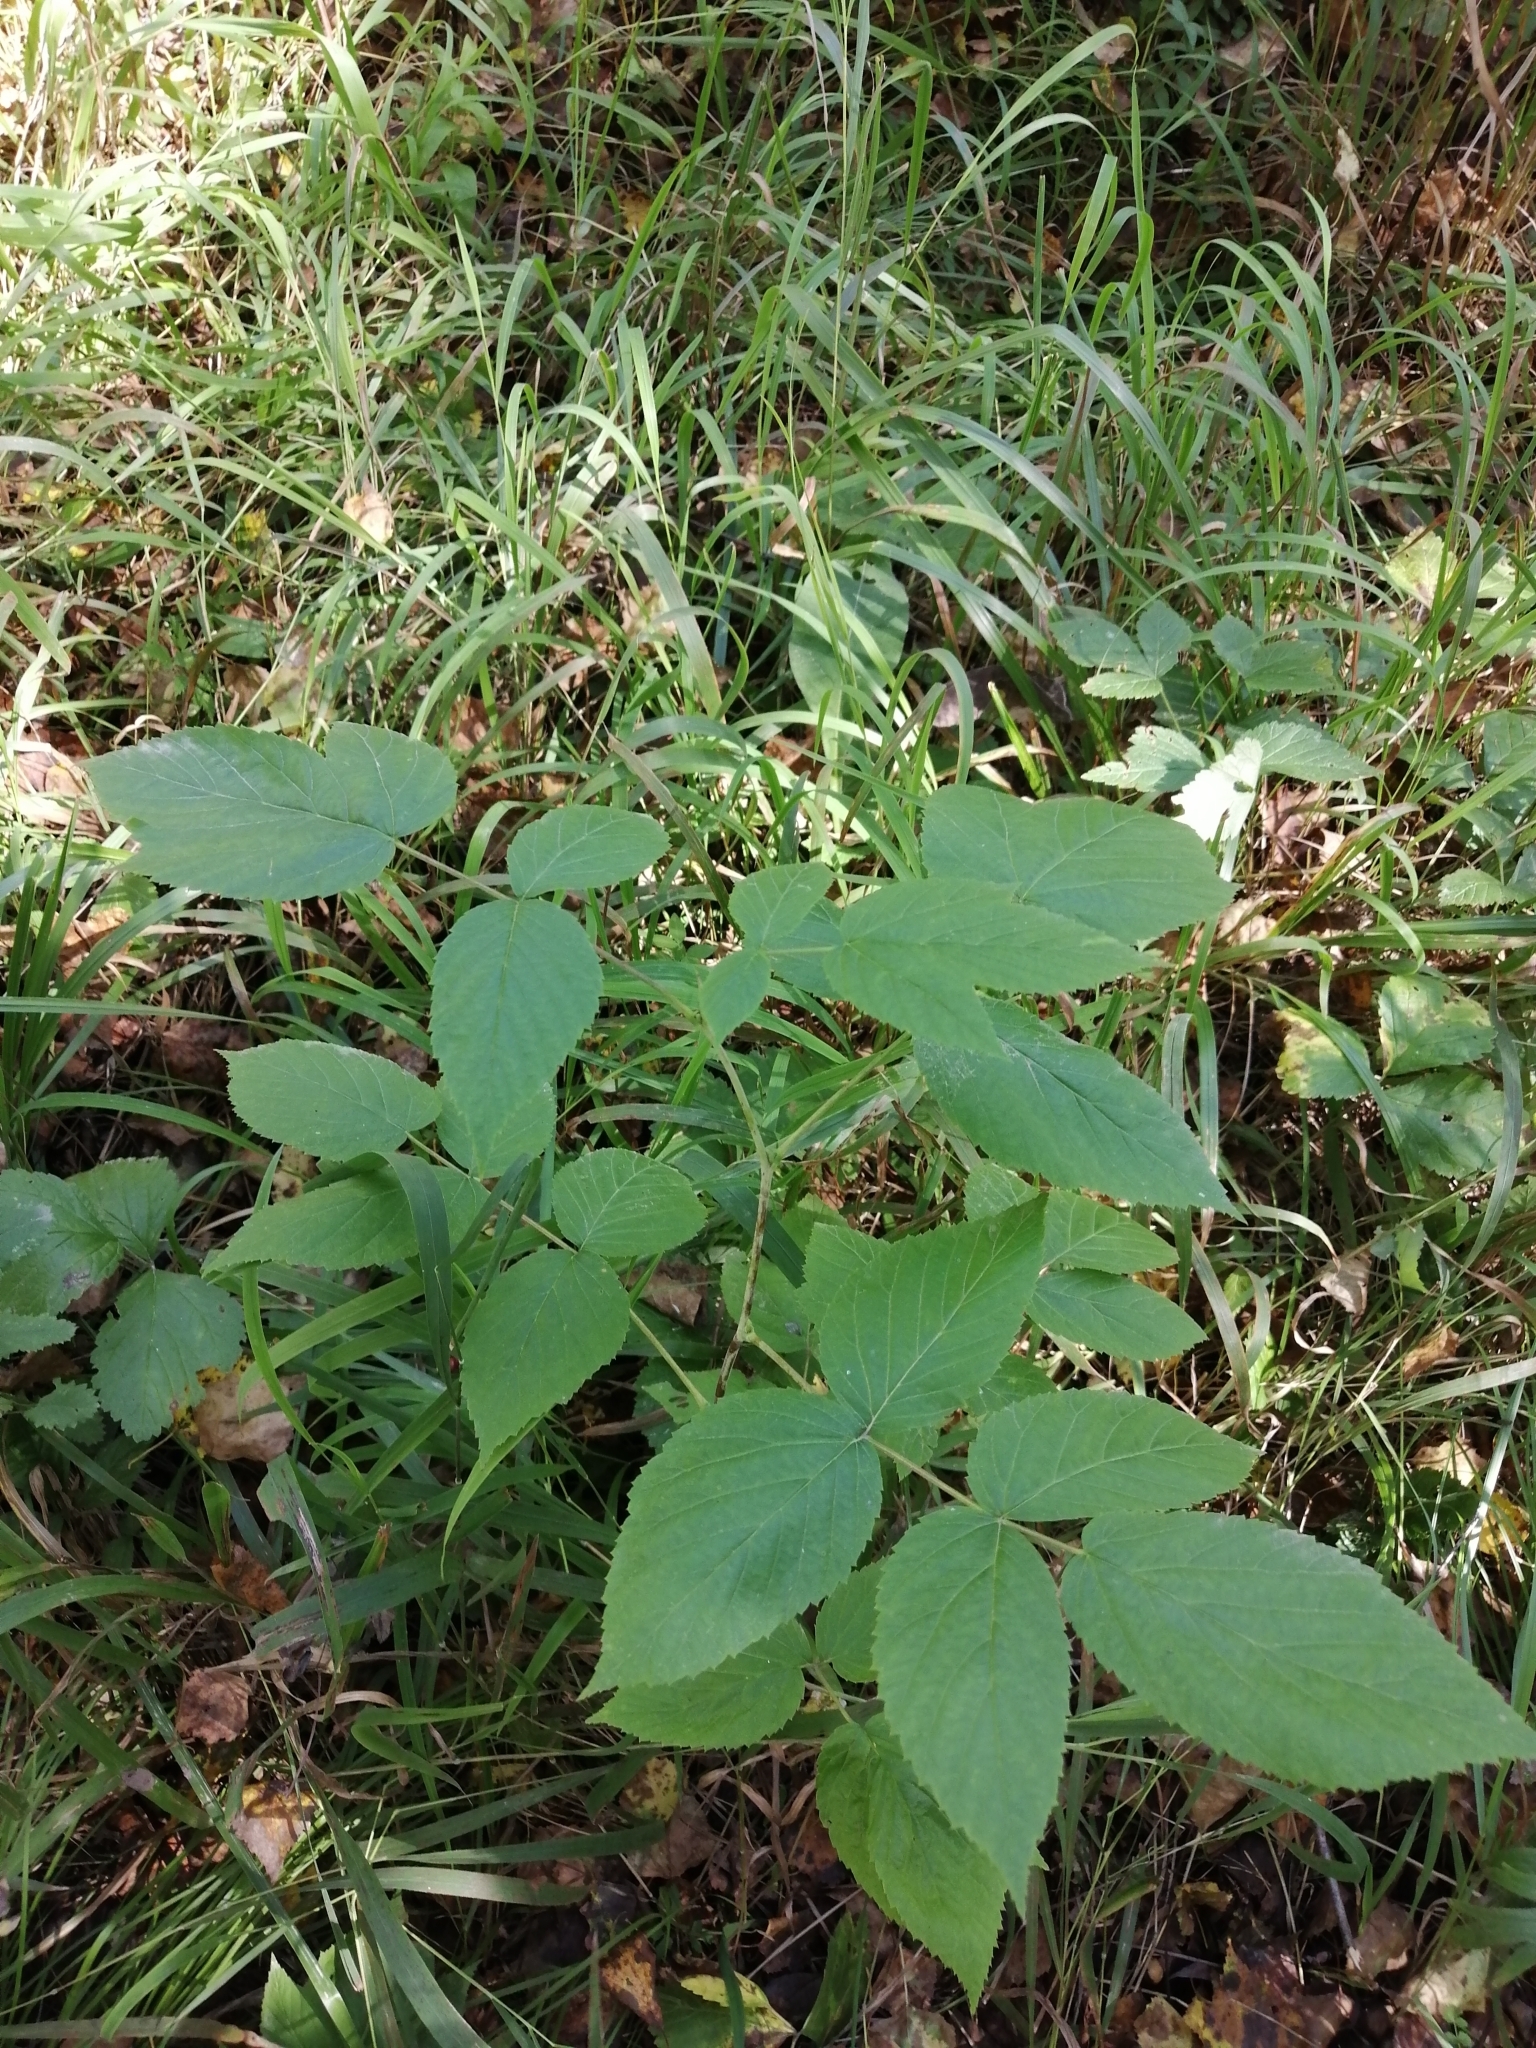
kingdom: Plantae
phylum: Tracheophyta
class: Magnoliopsida
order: Rosales
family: Rosaceae
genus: Rubus
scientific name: Rubus idaeus
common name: Raspberry
